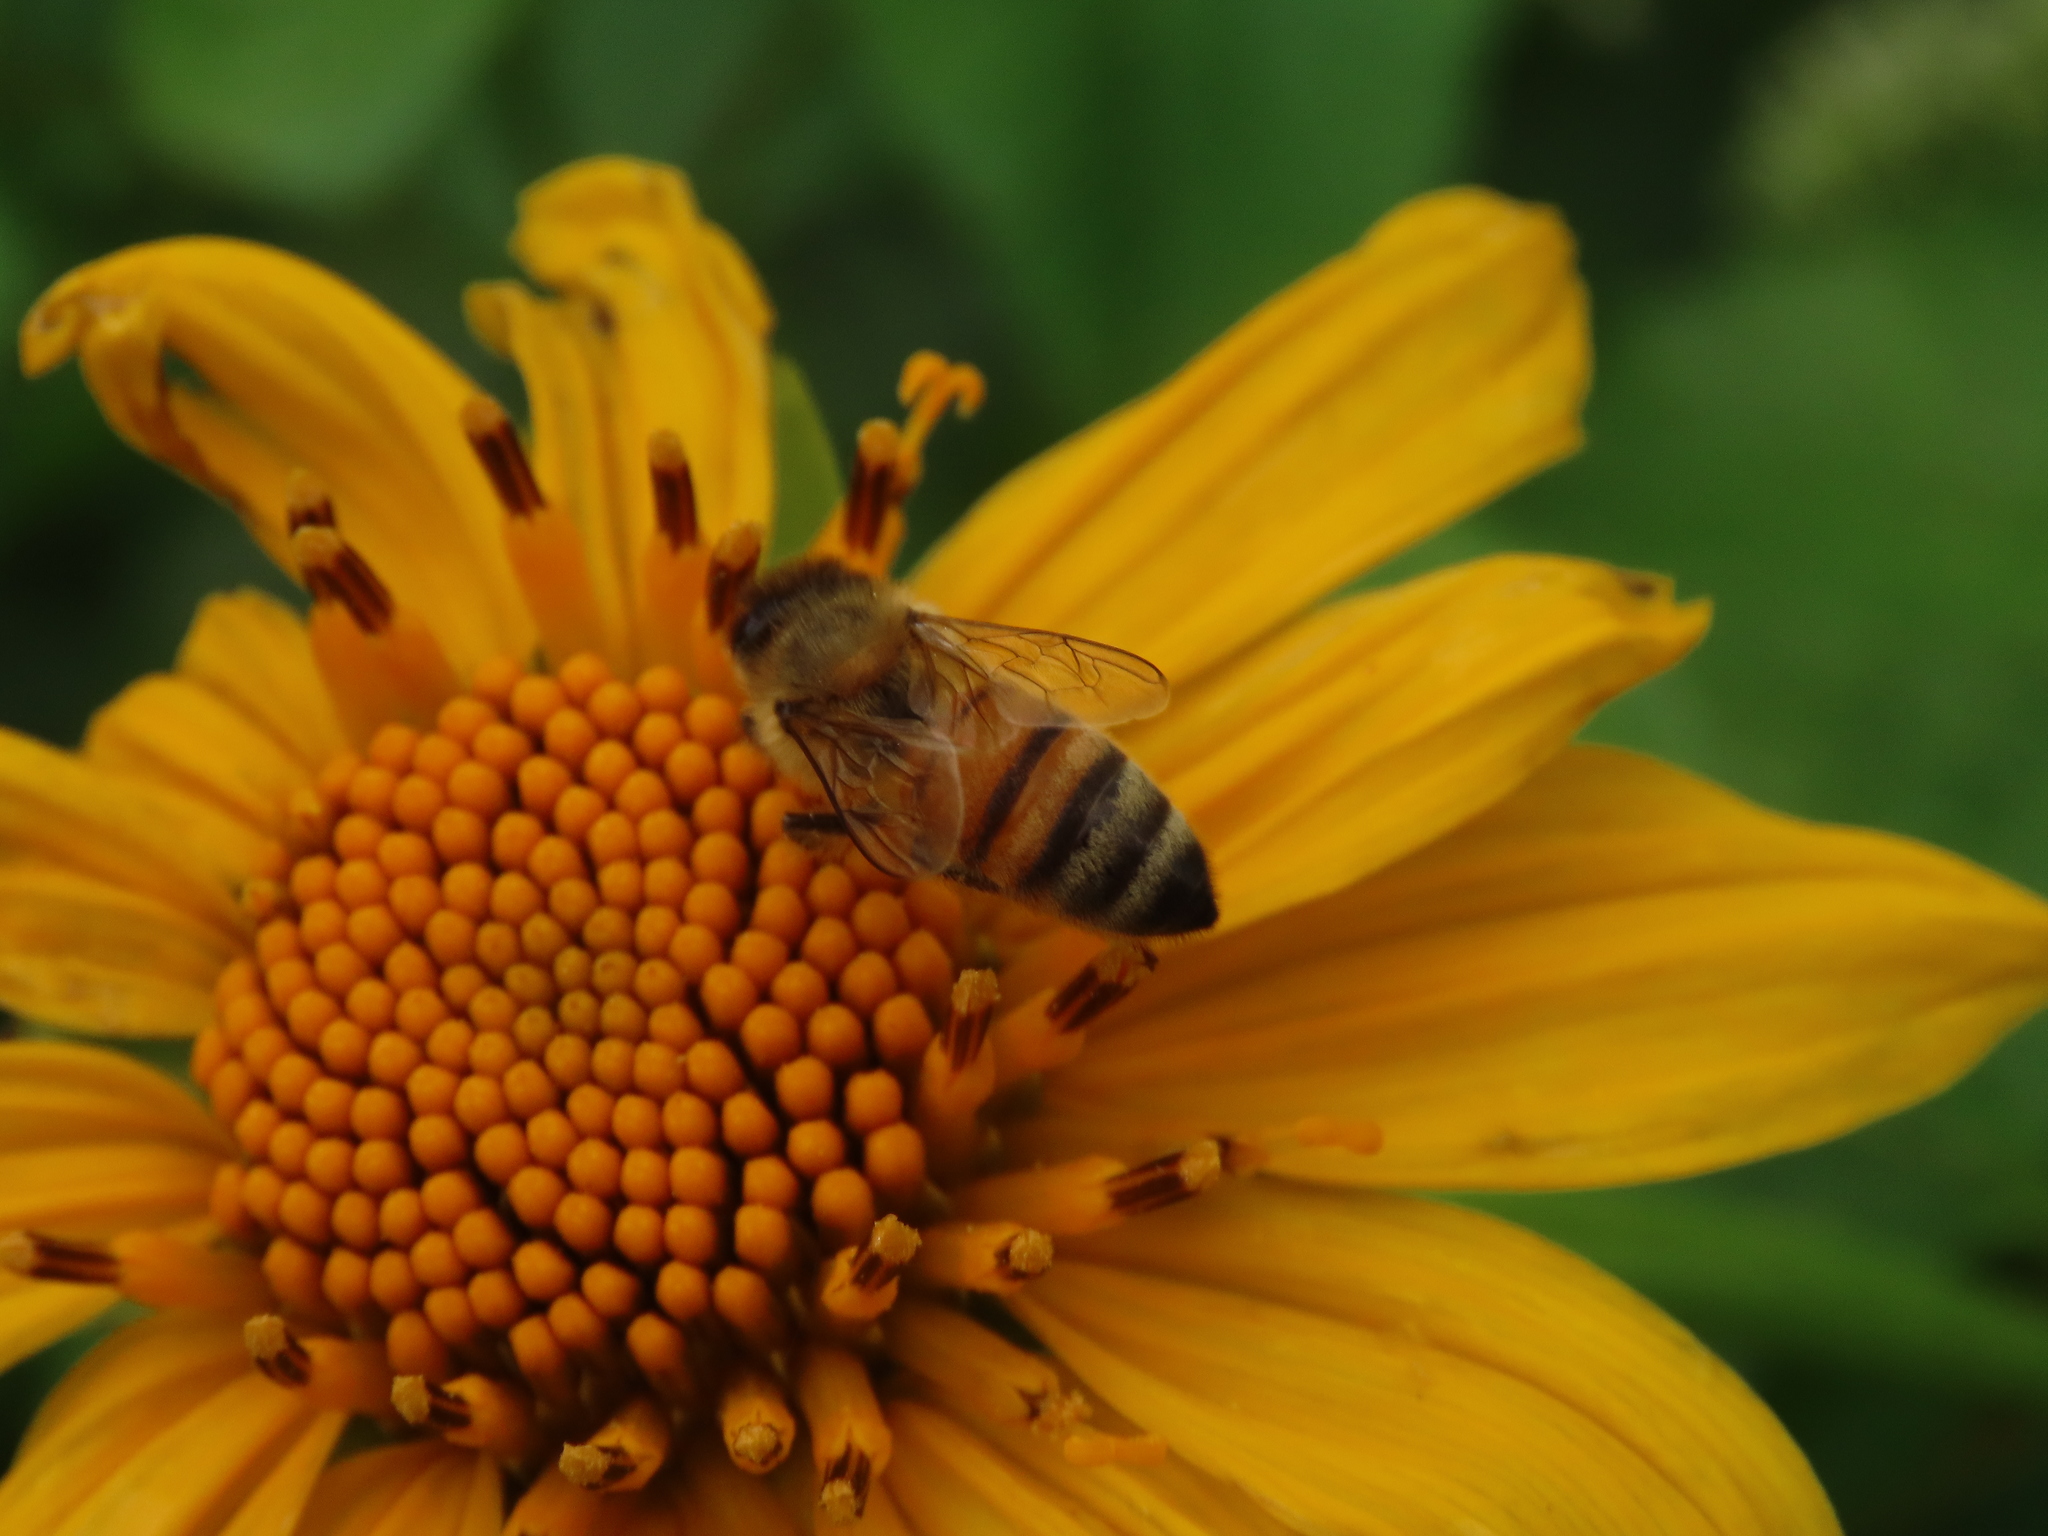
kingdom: Animalia
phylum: Arthropoda
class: Insecta
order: Hymenoptera
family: Apidae
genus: Apis
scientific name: Apis mellifera
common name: Honey bee
